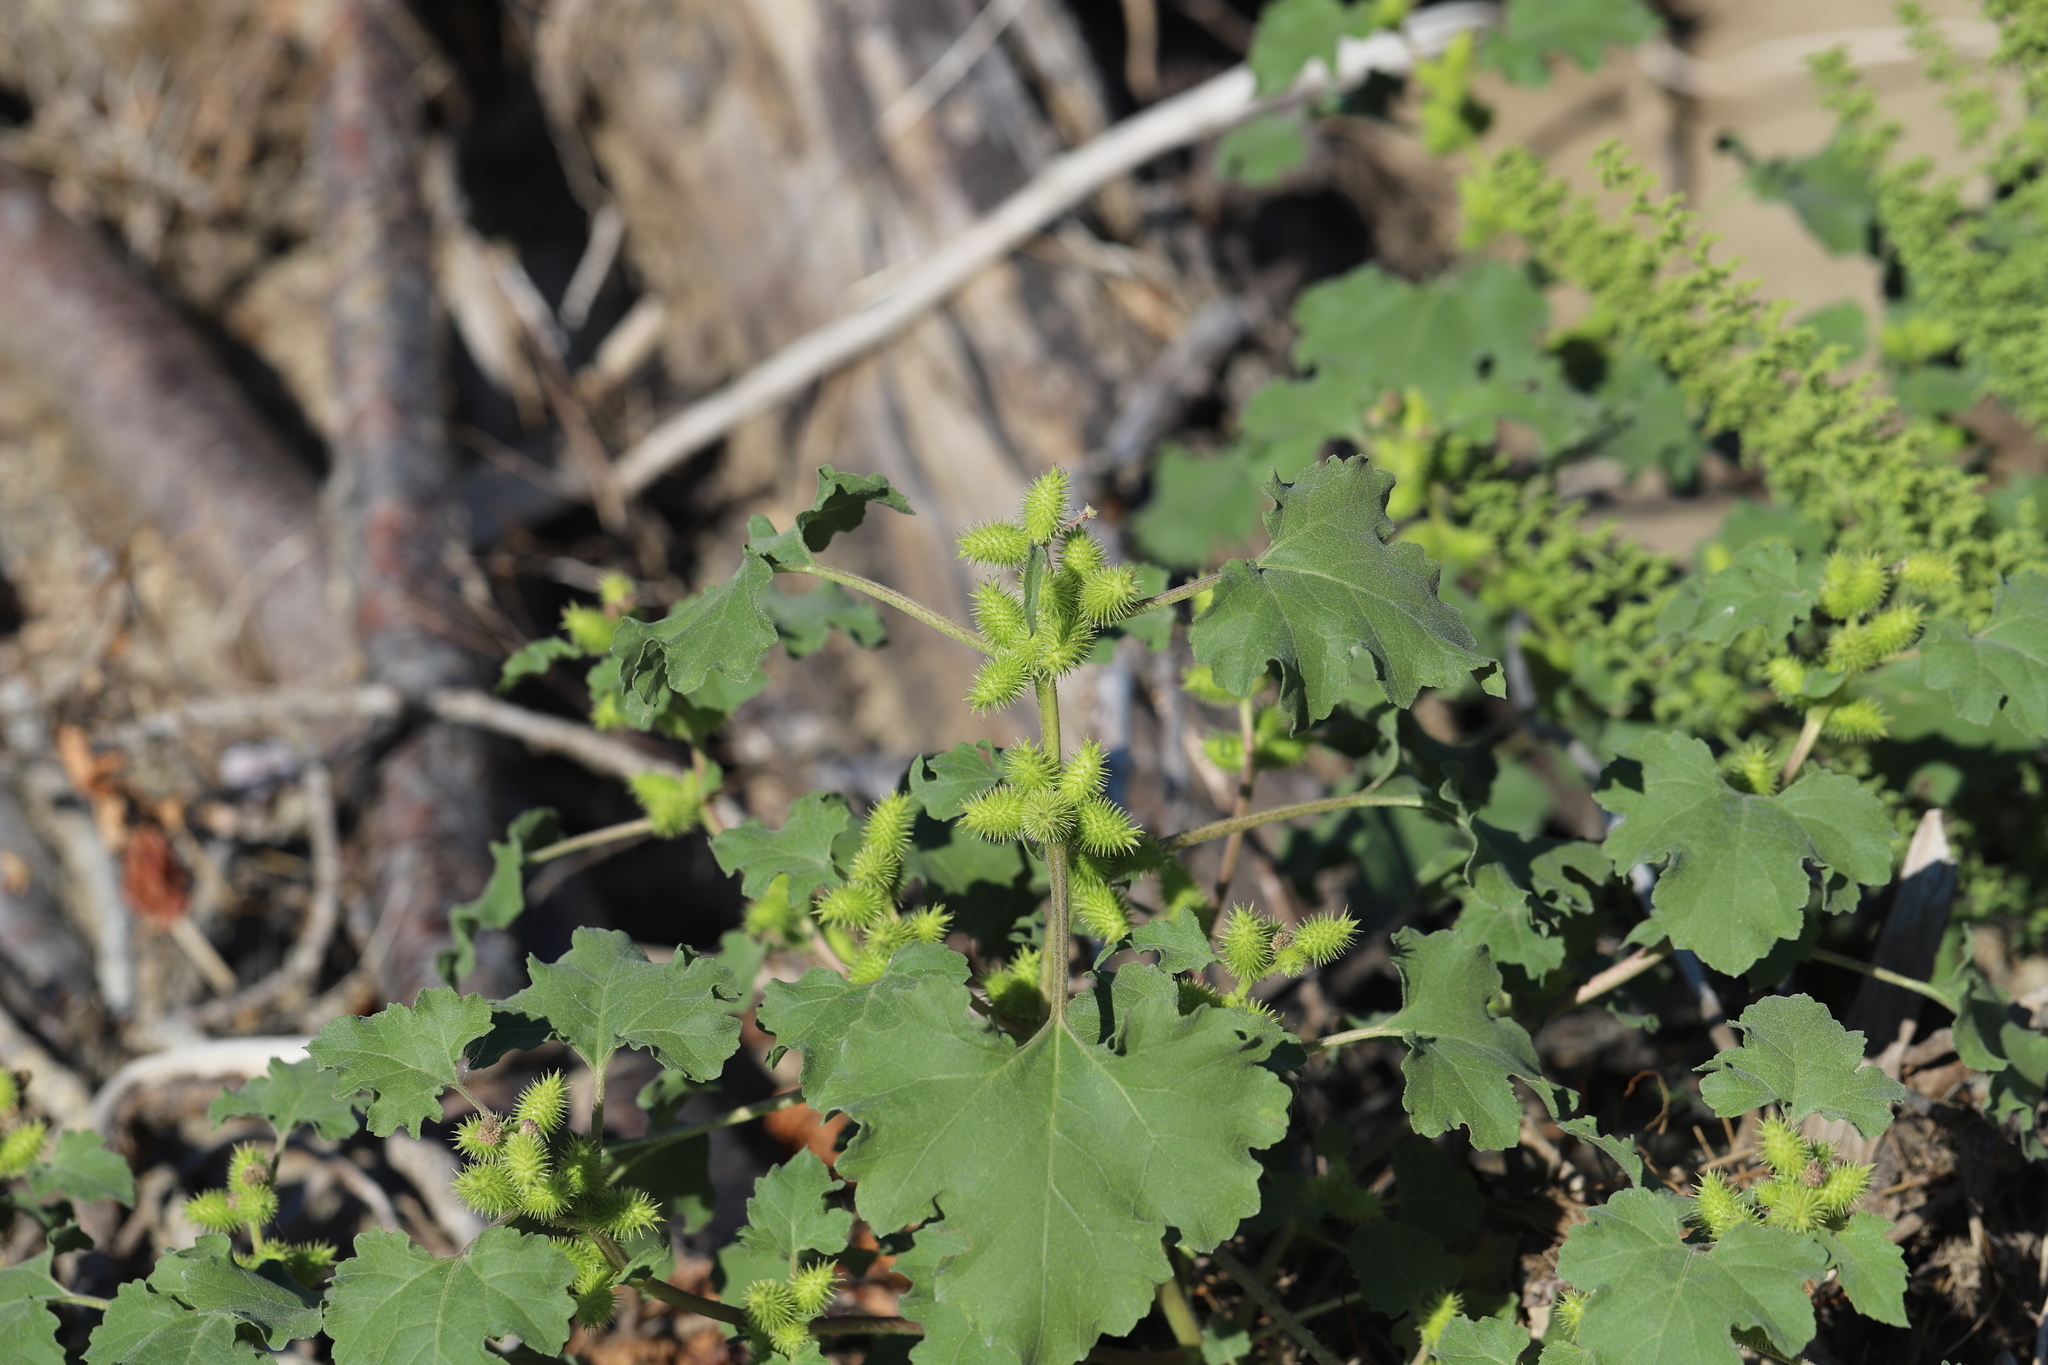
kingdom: Plantae
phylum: Tracheophyta
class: Magnoliopsida
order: Asterales
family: Asteraceae
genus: Xanthium
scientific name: Xanthium strumarium
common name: Rough cocklebur
